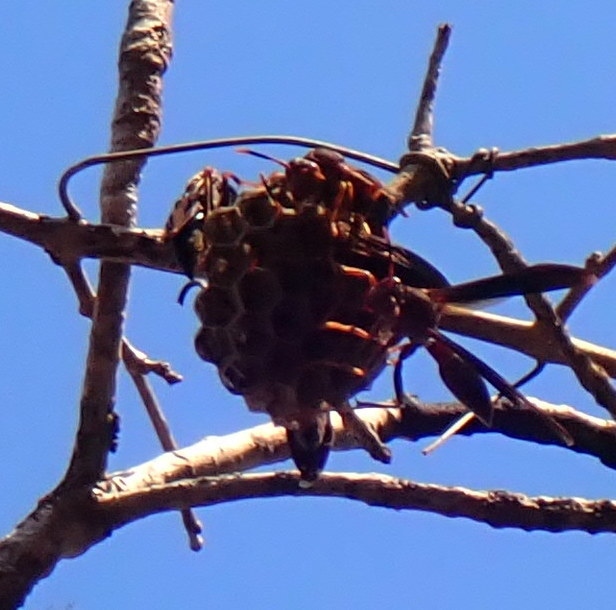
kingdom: Animalia
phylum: Arthropoda
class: Insecta
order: Hymenoptera
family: Eumenidae
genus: Polistes
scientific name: Polistes annularis
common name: Ringed paper wasp
